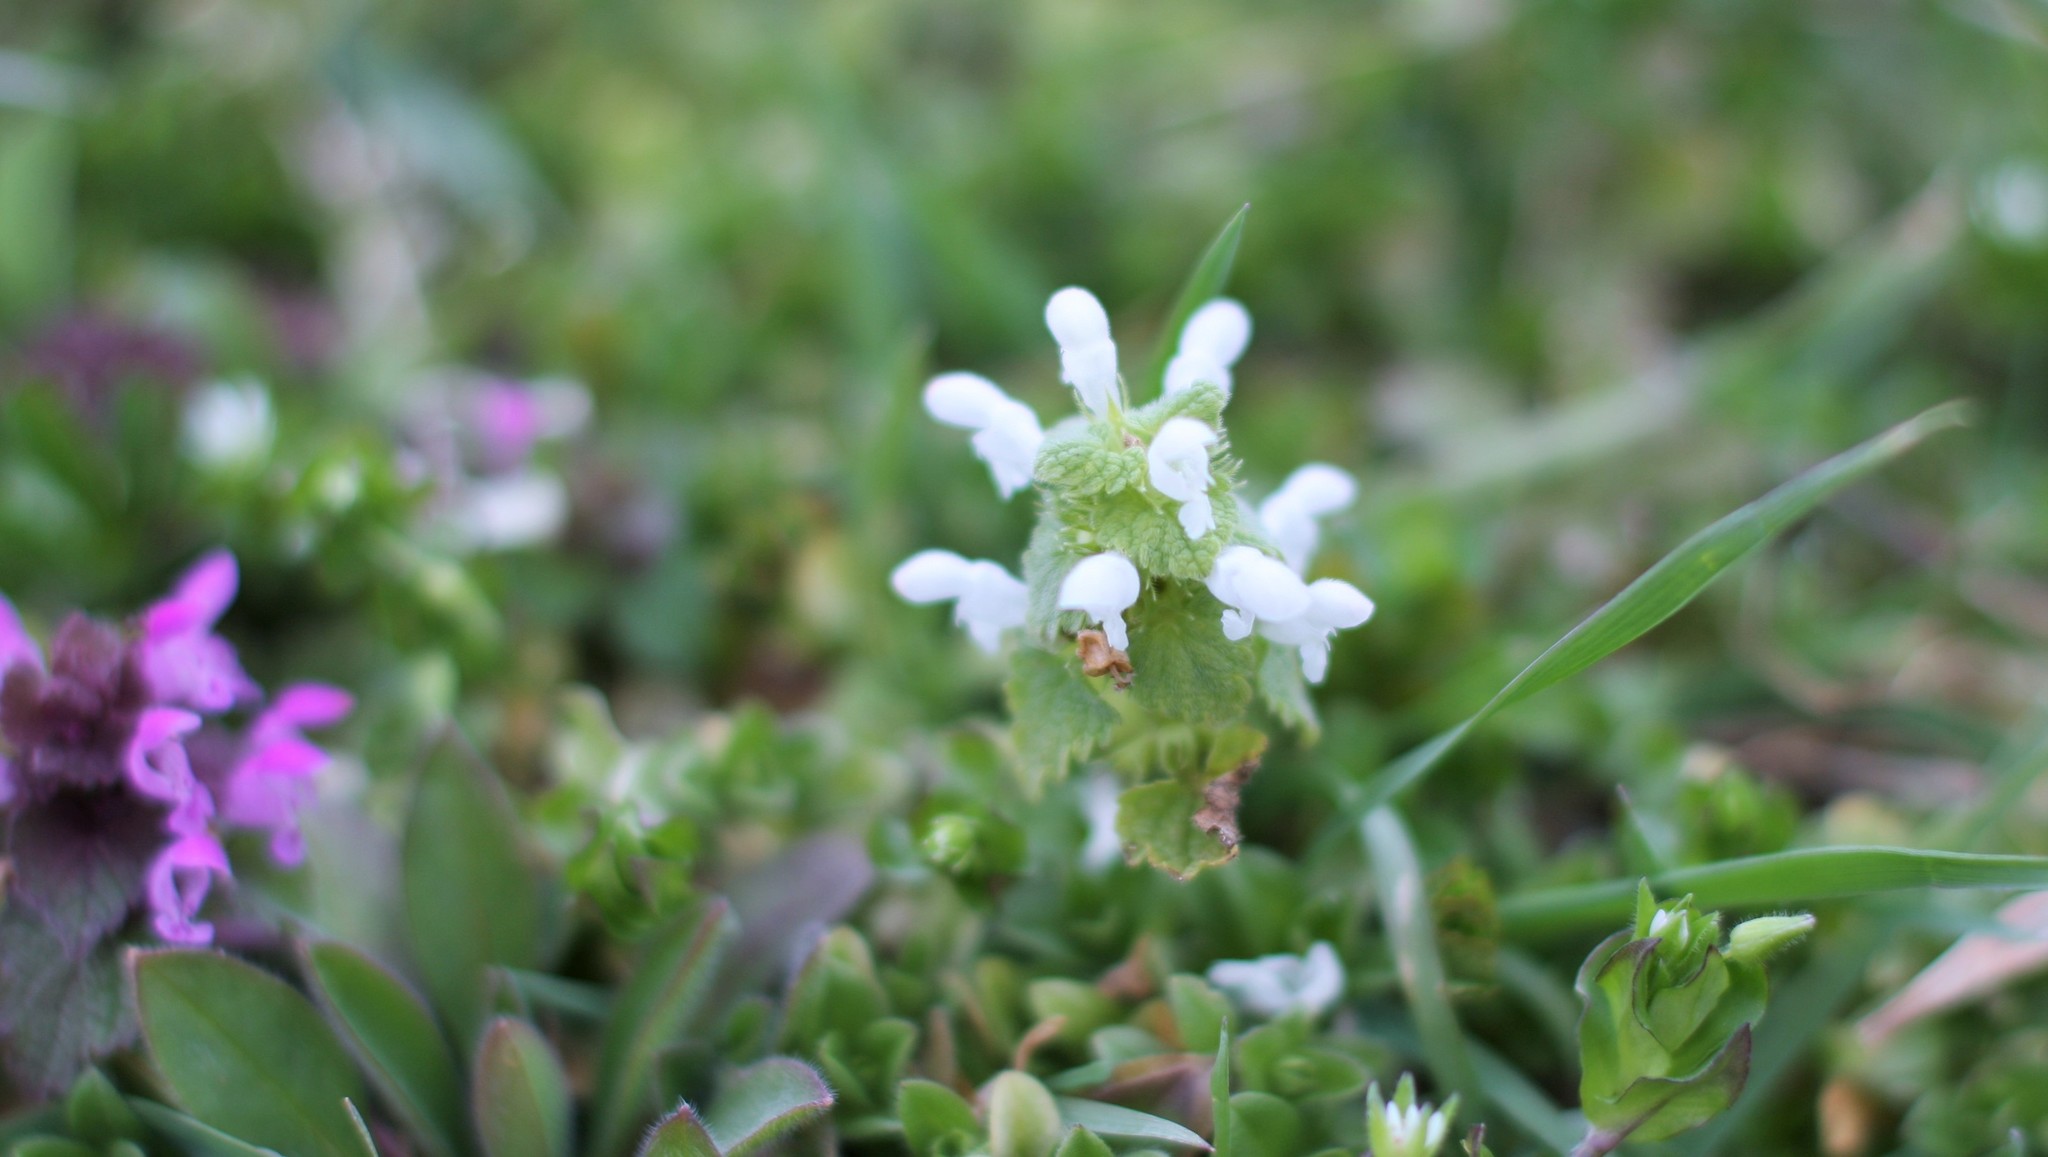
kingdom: Plantae
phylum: Tracheophyta
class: Magnoliopsida
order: Lamiales
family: Lamiaceae
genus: Lamium
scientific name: Lamium purpureum
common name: Red dead-nettle
